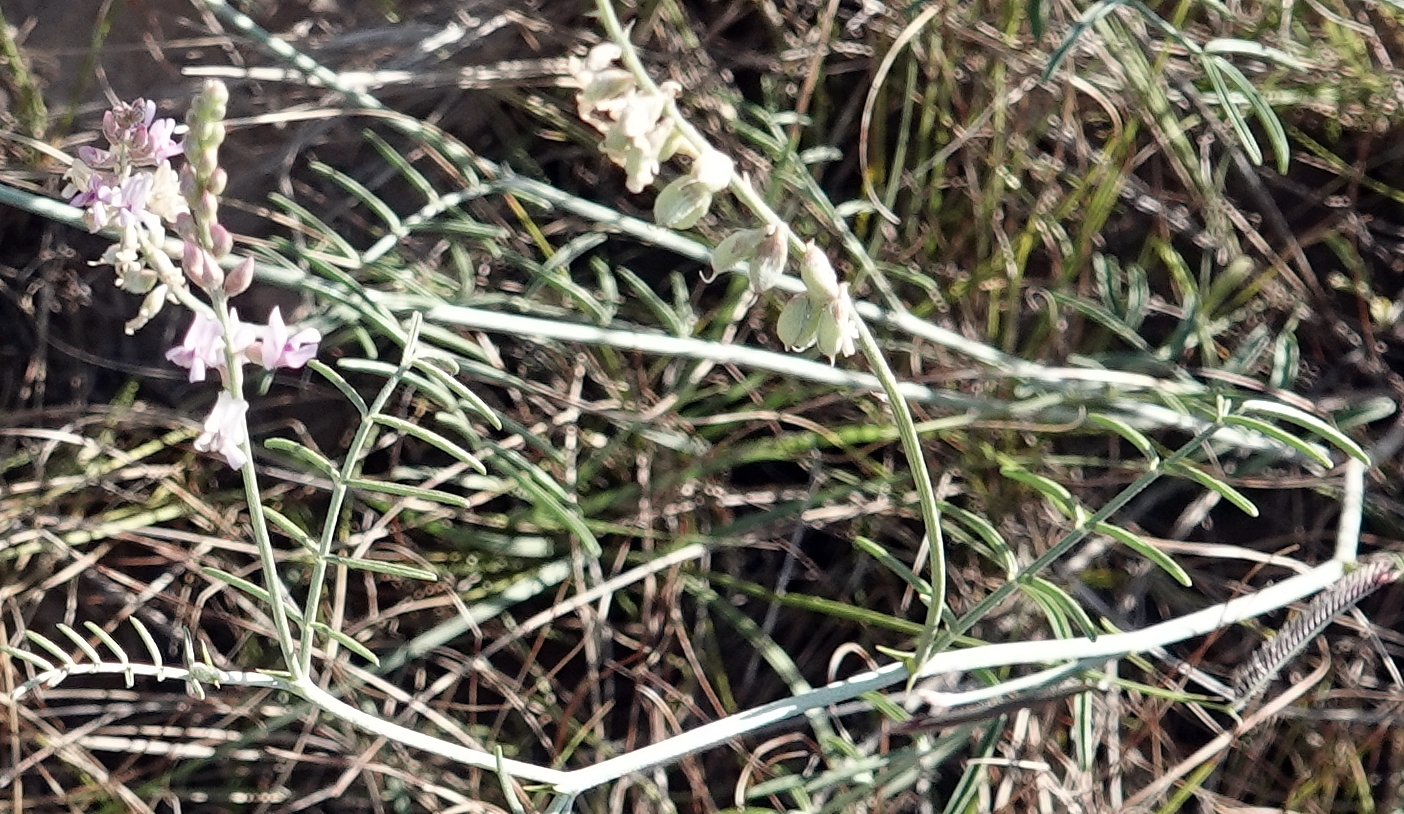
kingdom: Plantae
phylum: Tracheophyta
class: Magnoliopsida
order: Fabales
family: Fabaceae
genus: Astragalus
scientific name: Astragalus gracilis
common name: Slender milk-vetch
